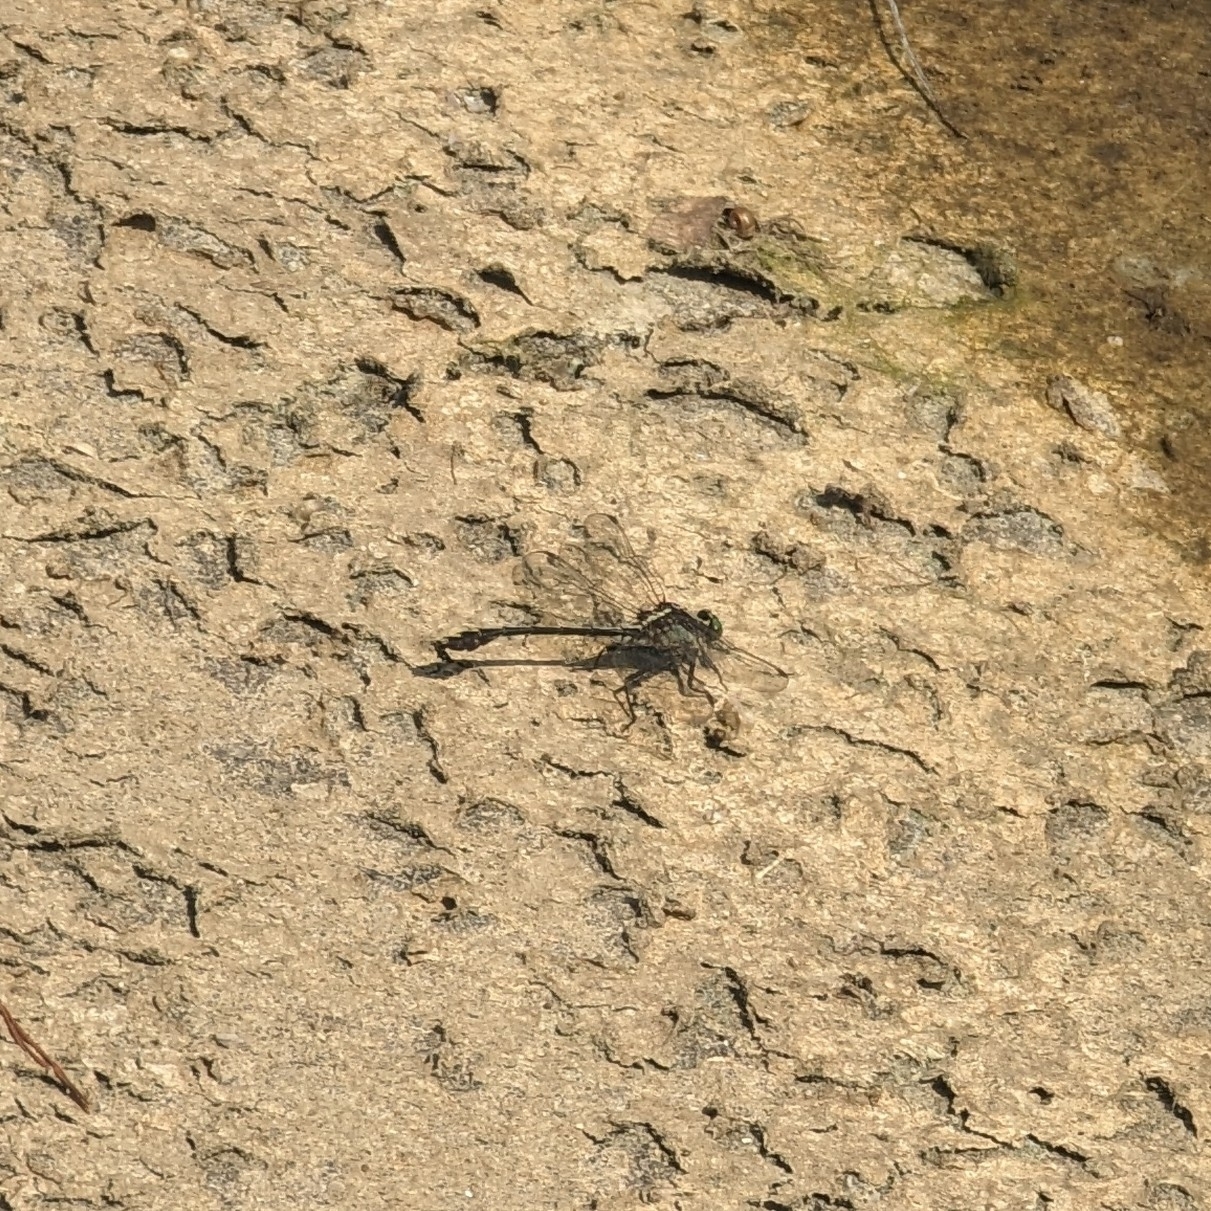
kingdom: Animalia
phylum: Arthropoda
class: Insecta
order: Odonata
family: Gomphidae
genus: Dromogomphus
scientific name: Dromogomphus spinosus
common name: Black-shouldered spinyleg
